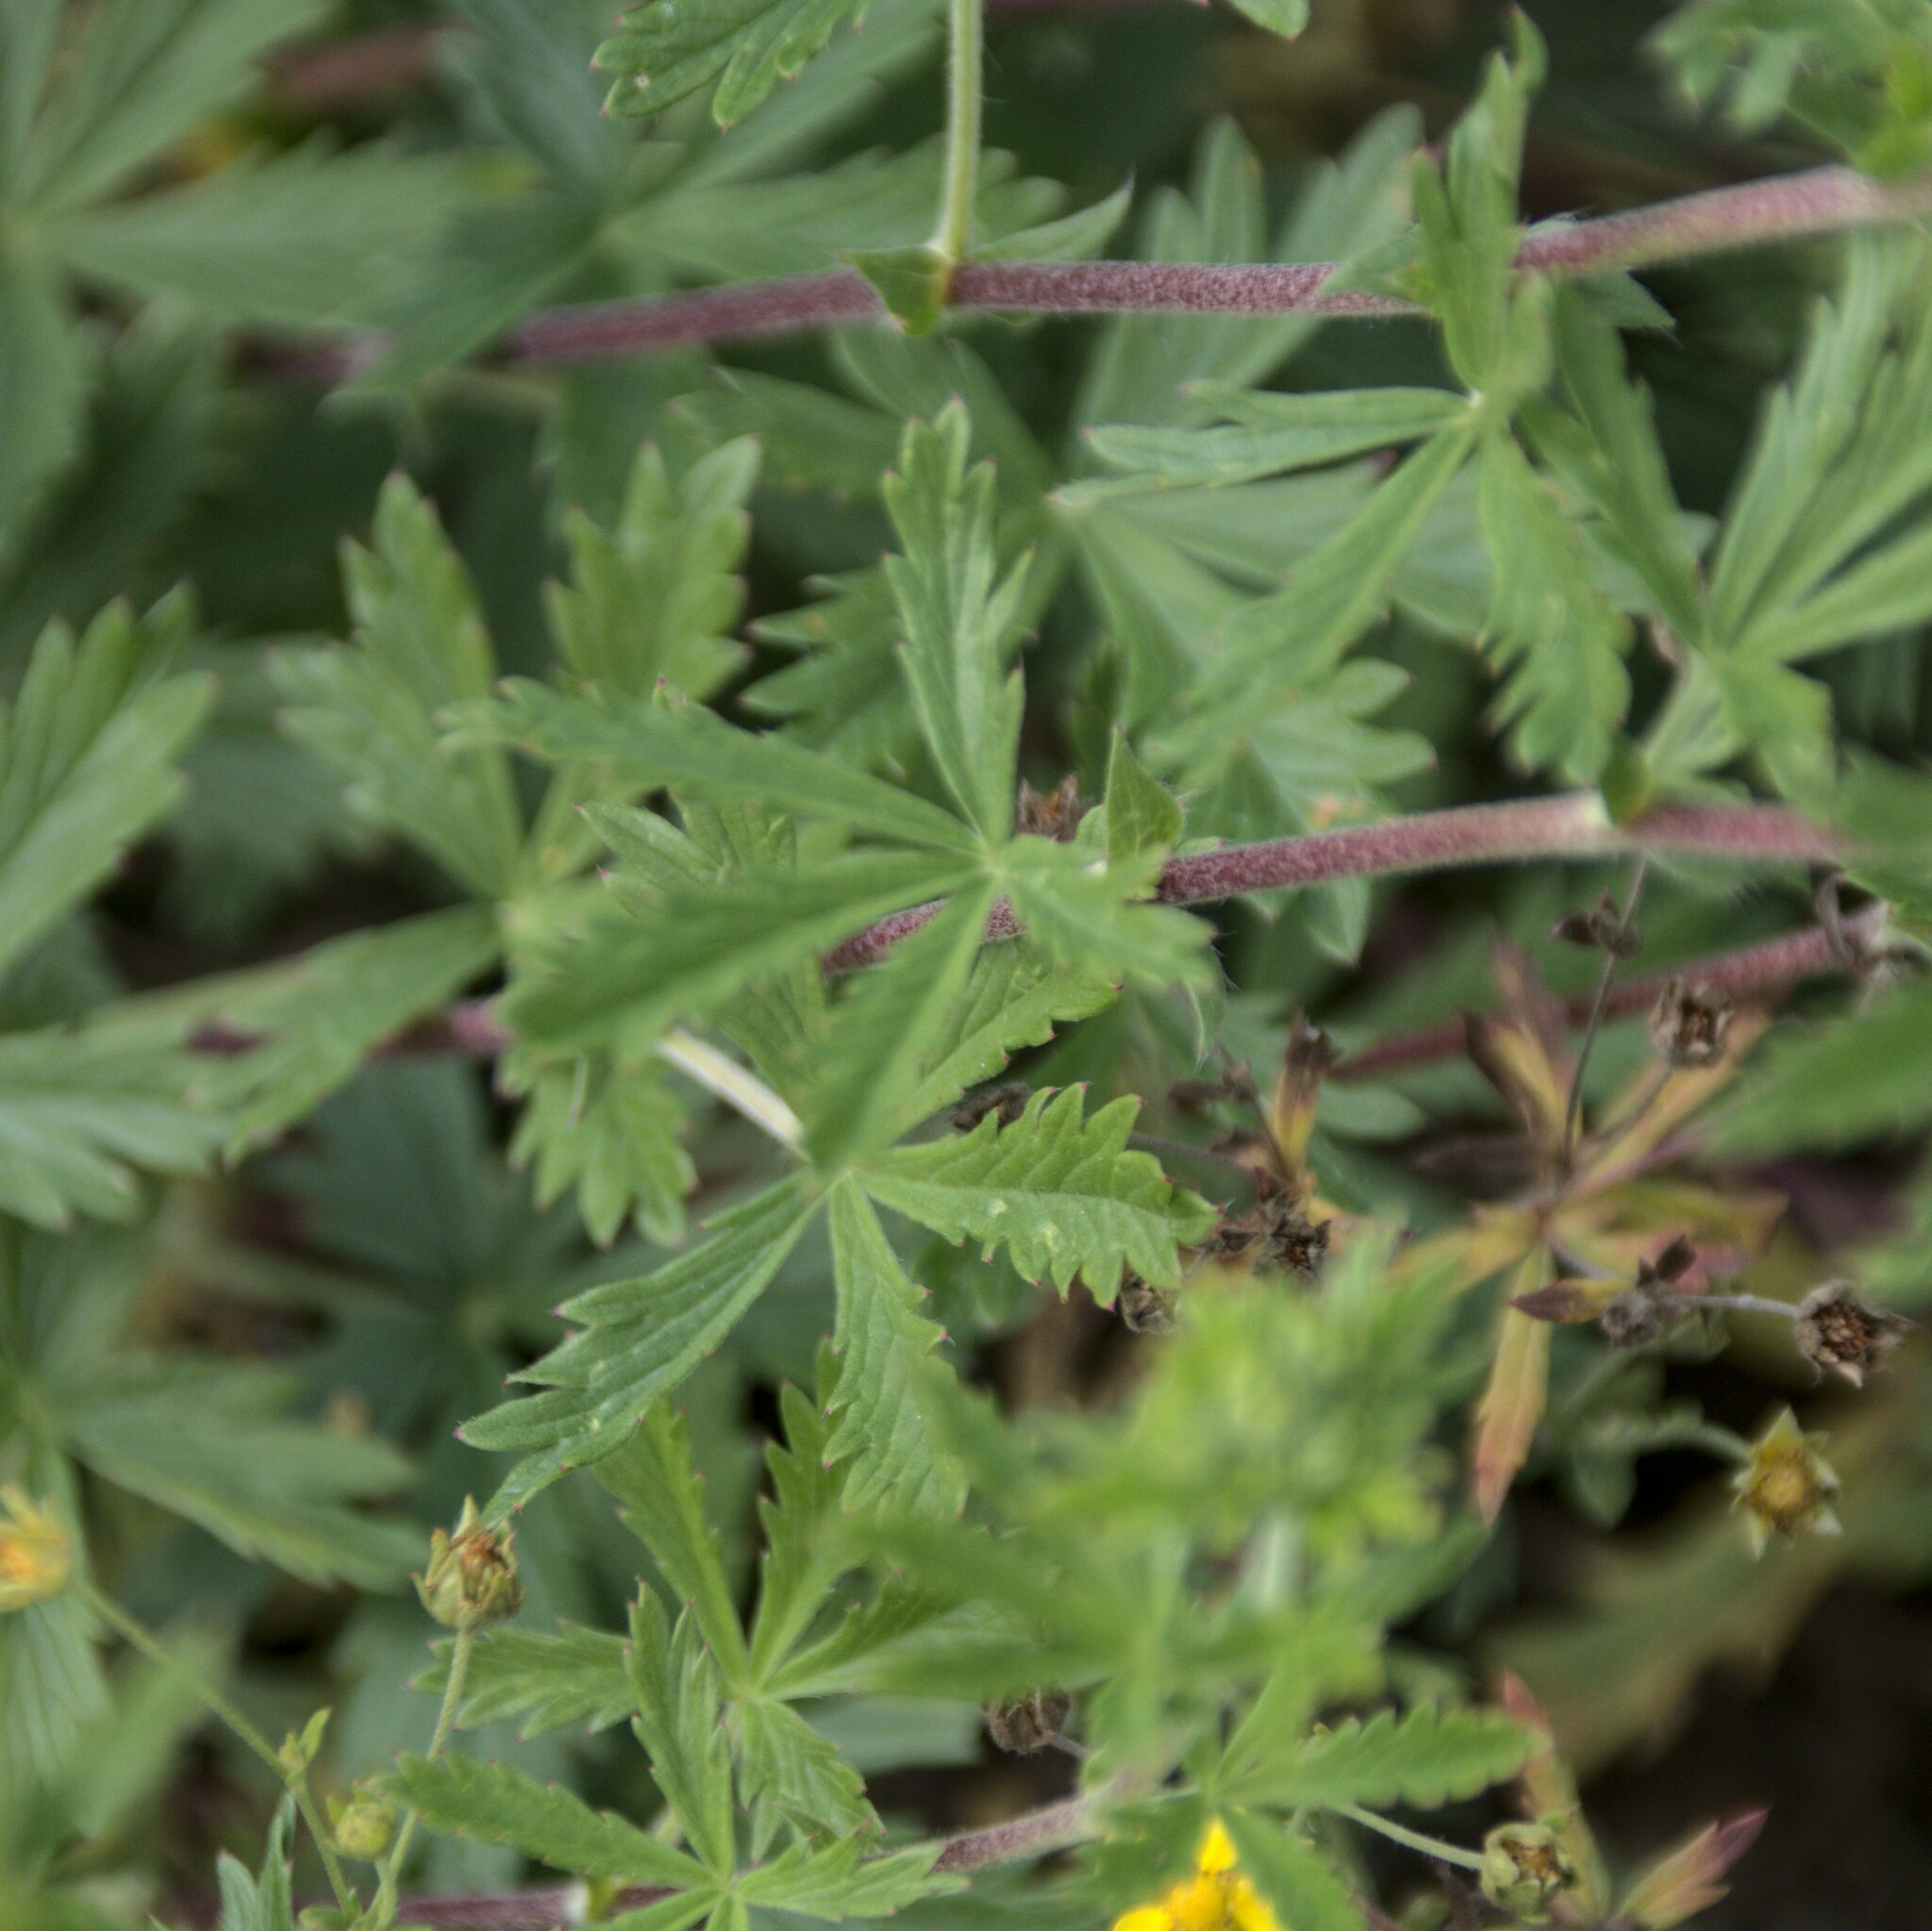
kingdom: Plantae
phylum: Tracheophyta
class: Magnoliopsida
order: Rosales
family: Rosaceae
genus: Potentilla
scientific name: Potentilla argentea
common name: Hoary cinquefoil
